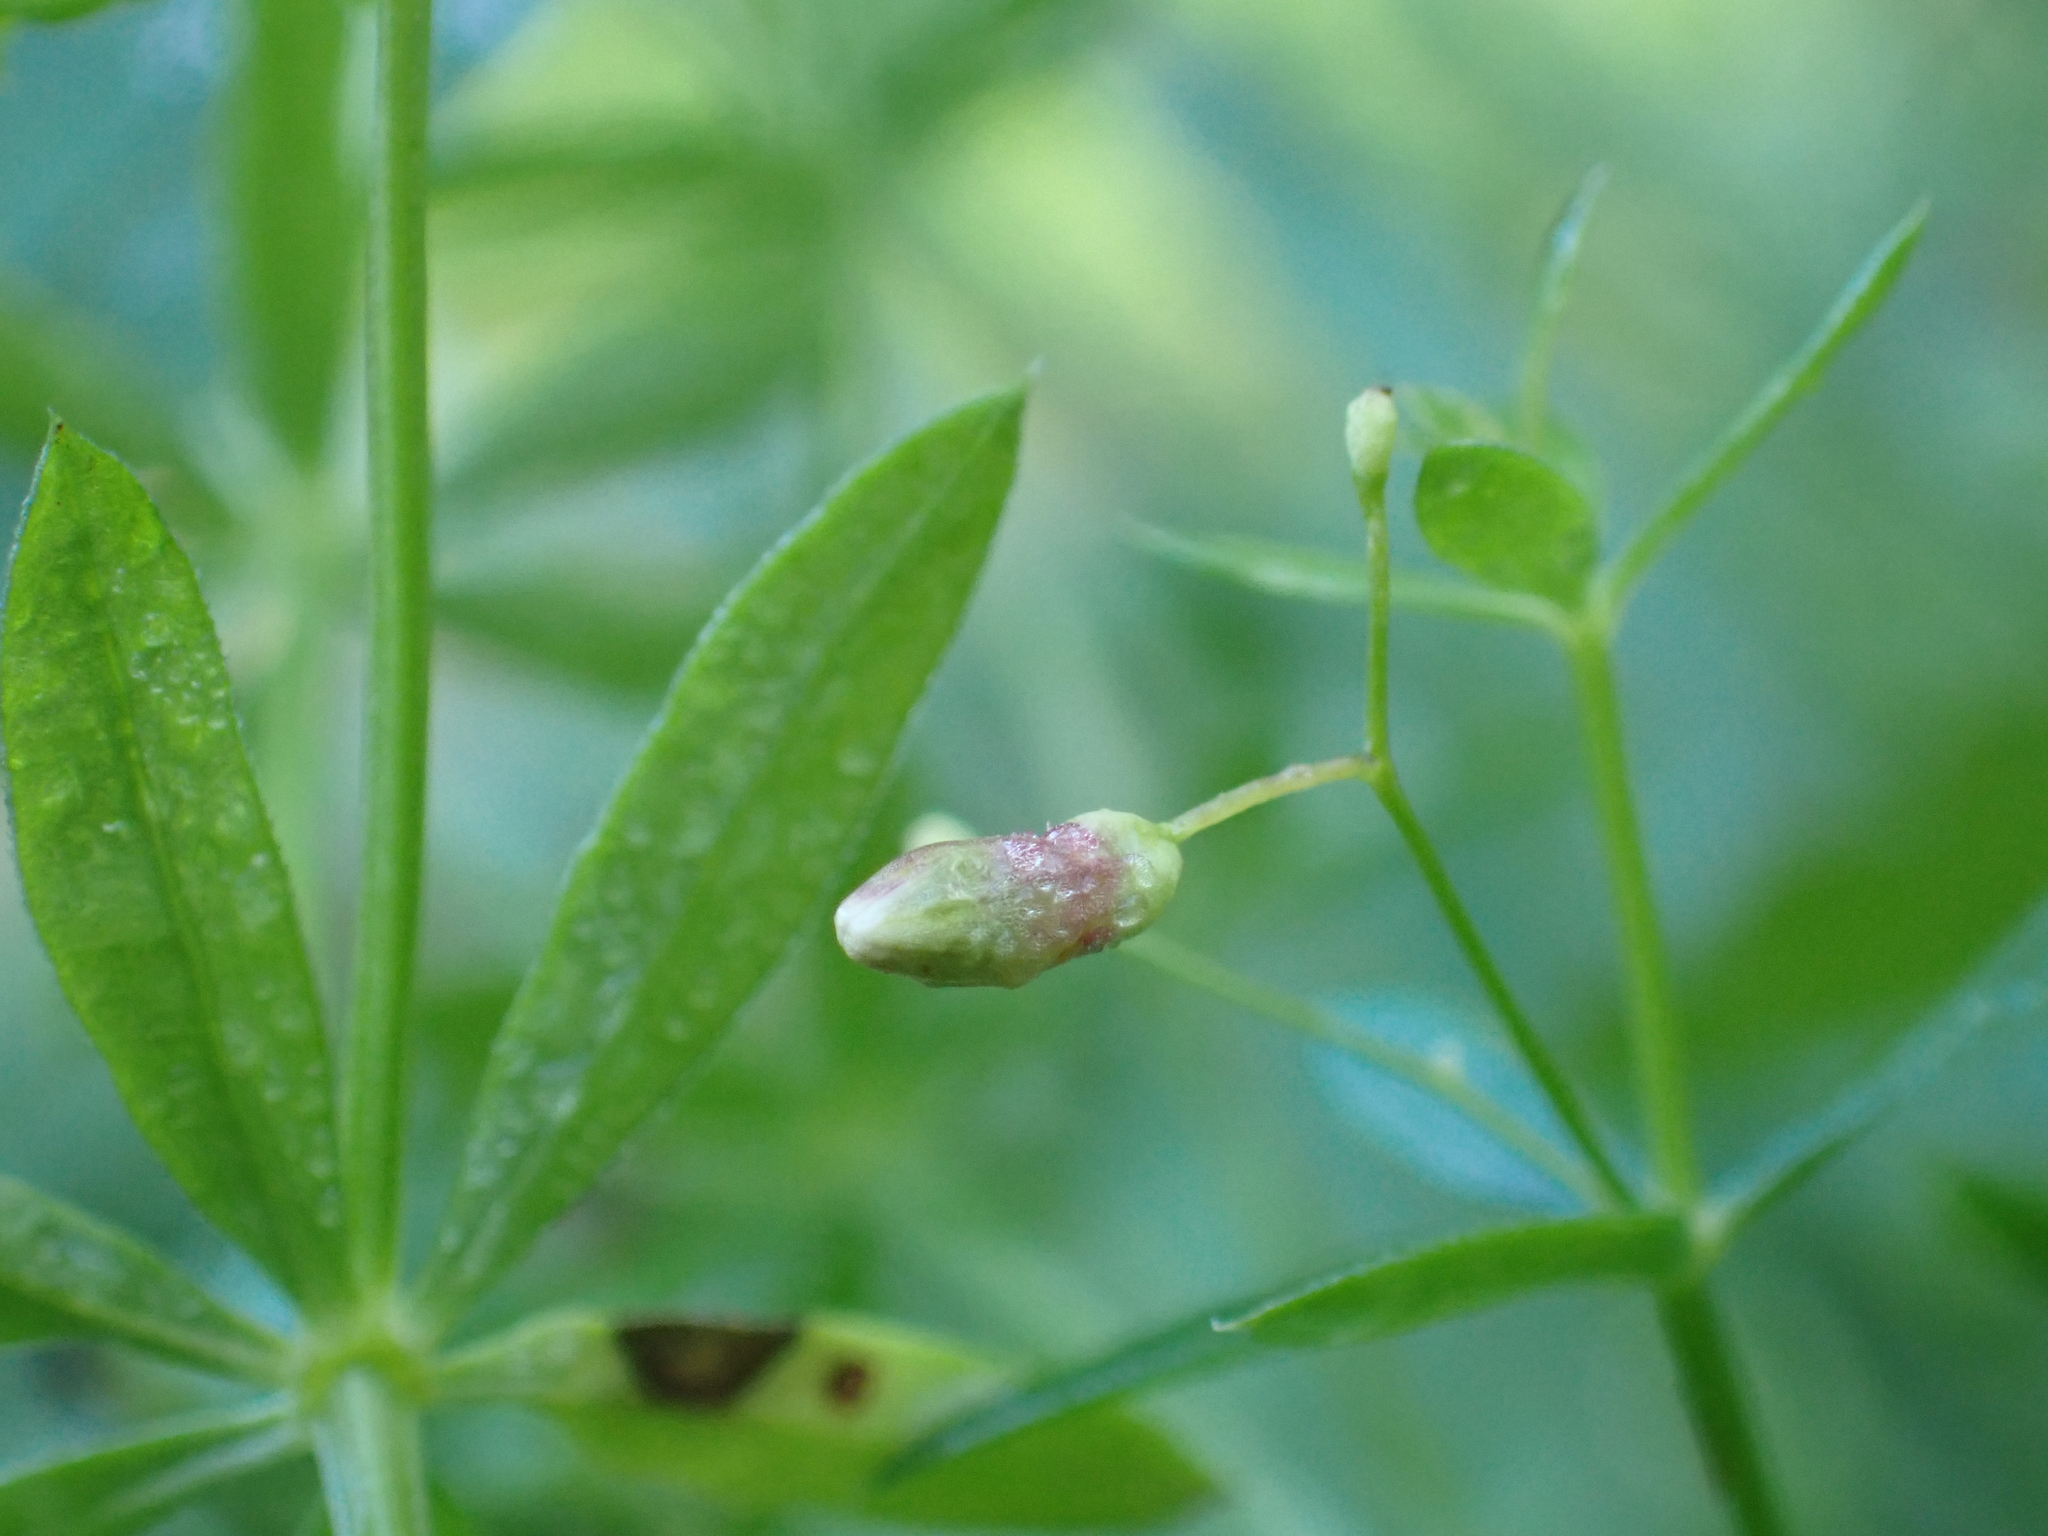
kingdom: Animalia
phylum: Arthropoda
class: Insecta
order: Diptera
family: Cecidomyiidae
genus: Schizomyia
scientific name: Schizomyia galiorum
